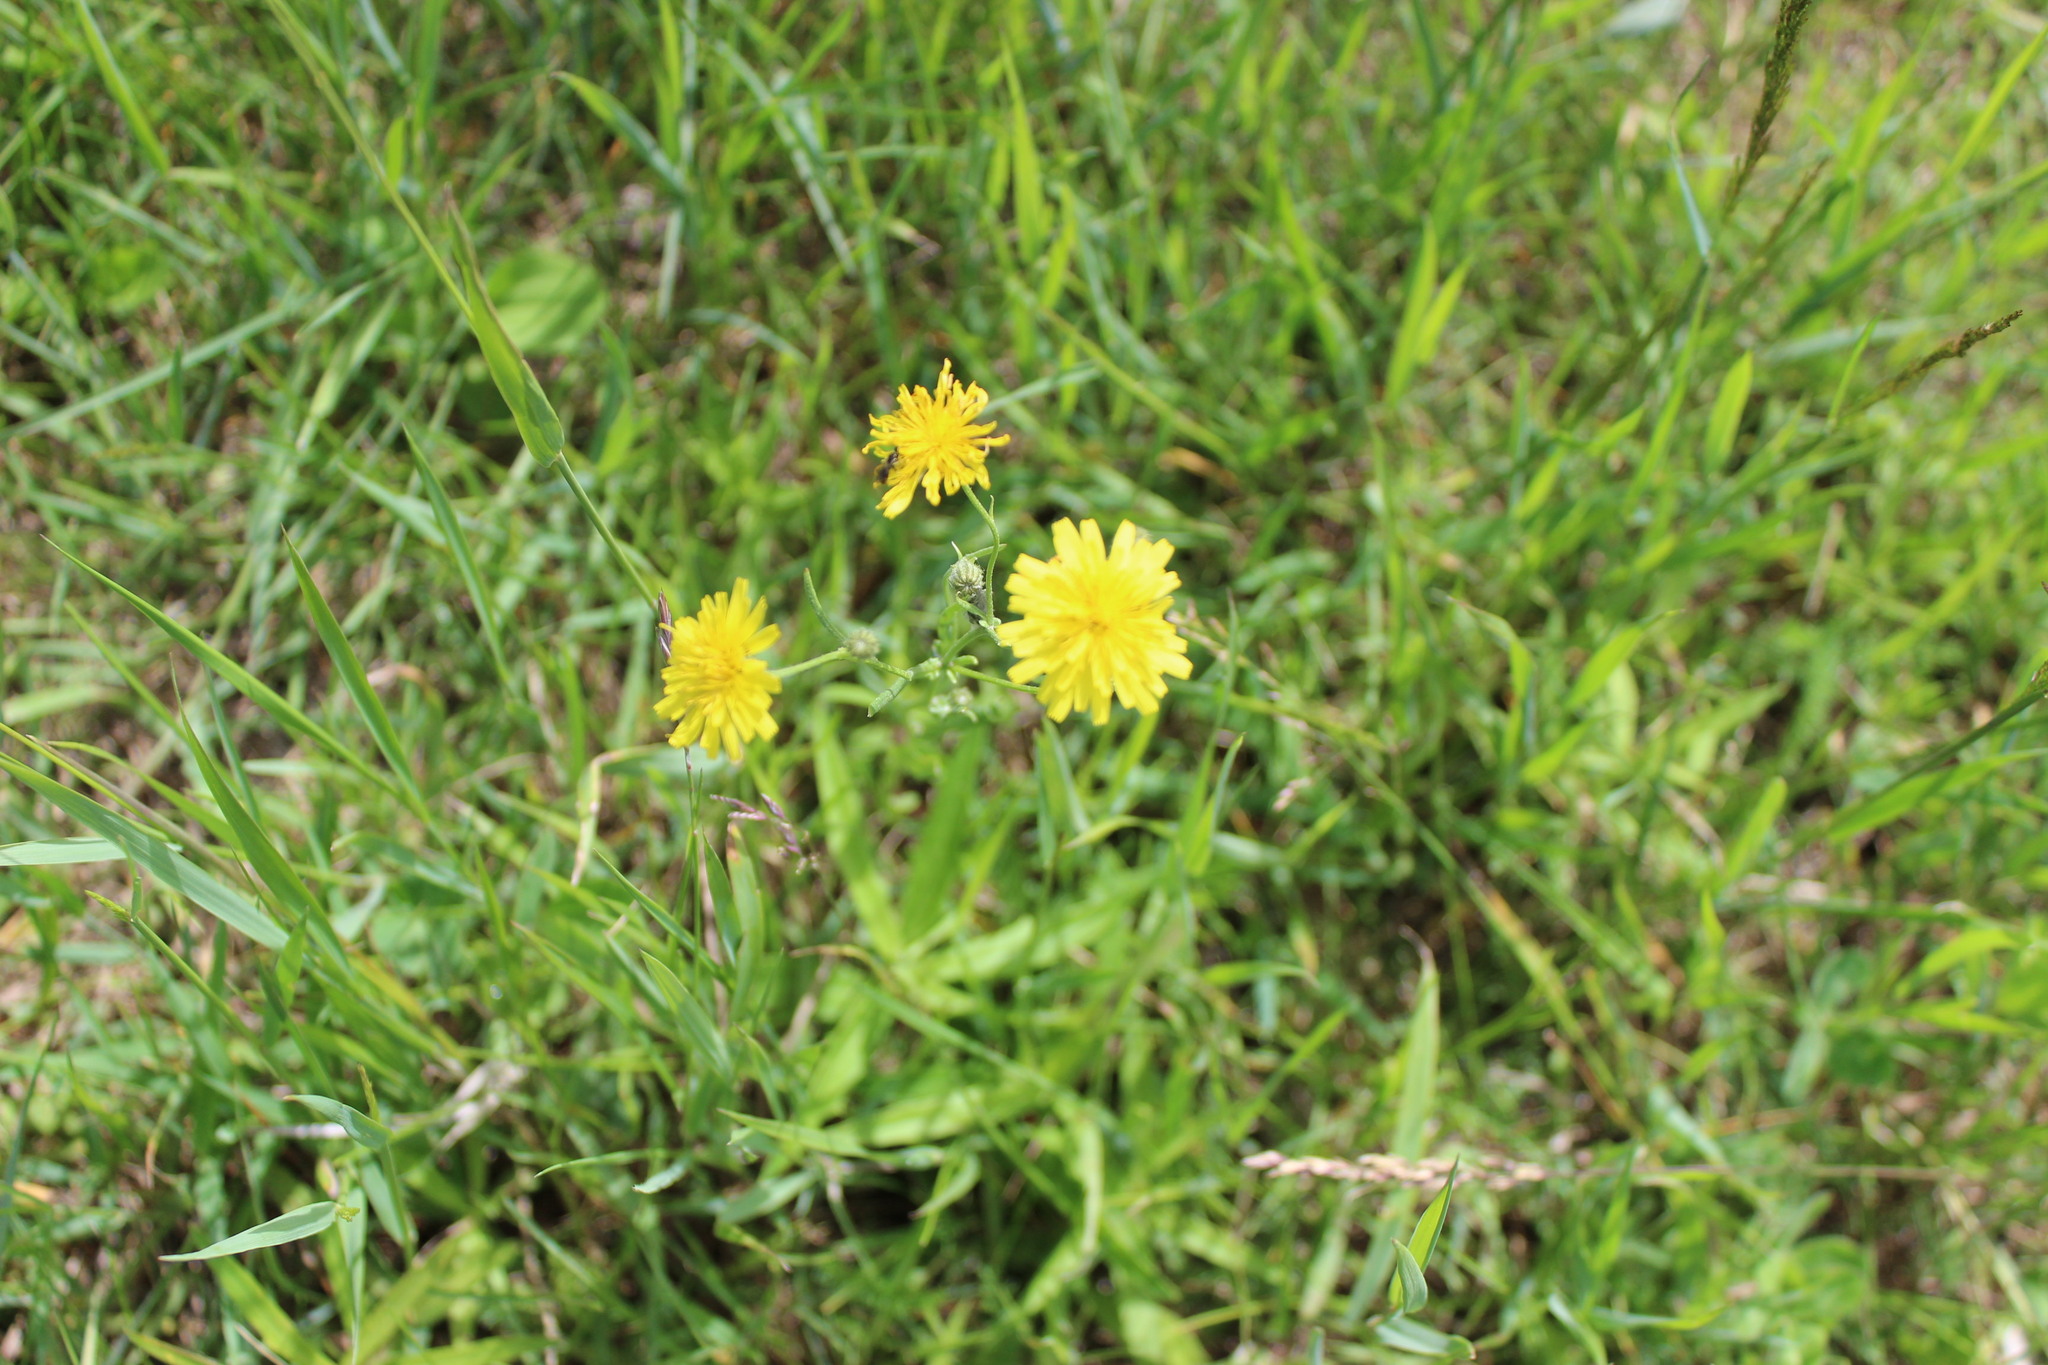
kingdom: Plantae
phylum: Tracheophyta
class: Magnoliopsida
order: Asterales
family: Asteraceae
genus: Crepis
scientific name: Crepis tectorum
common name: Narrow-leaved hawk's-beard
